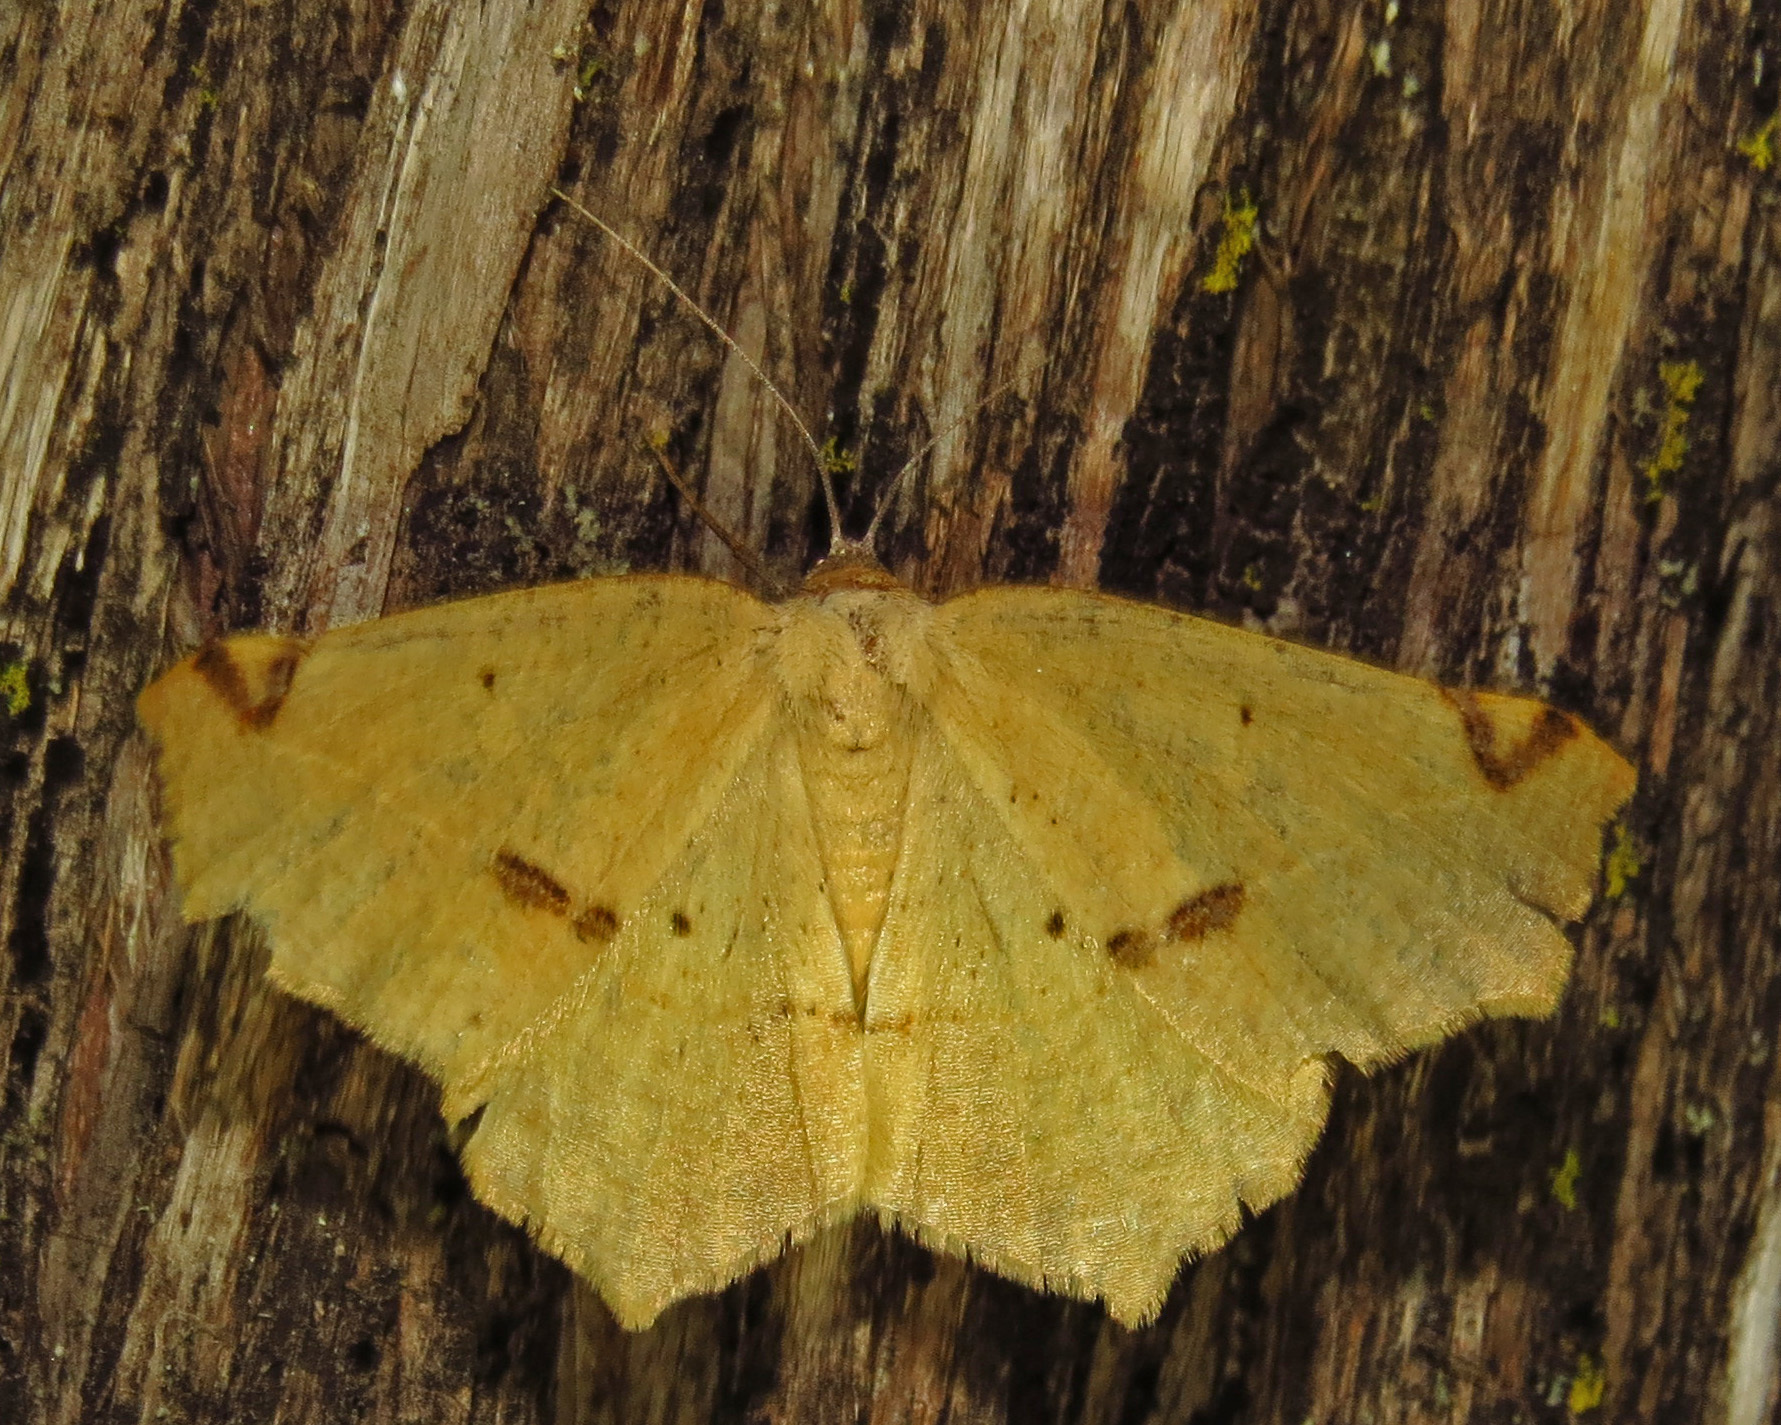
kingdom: Animalia
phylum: Arthropoda
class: Insecta
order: Lepidoptera
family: Geometridae
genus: Antepione
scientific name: Antepione thisoaria
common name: Variable antipione
